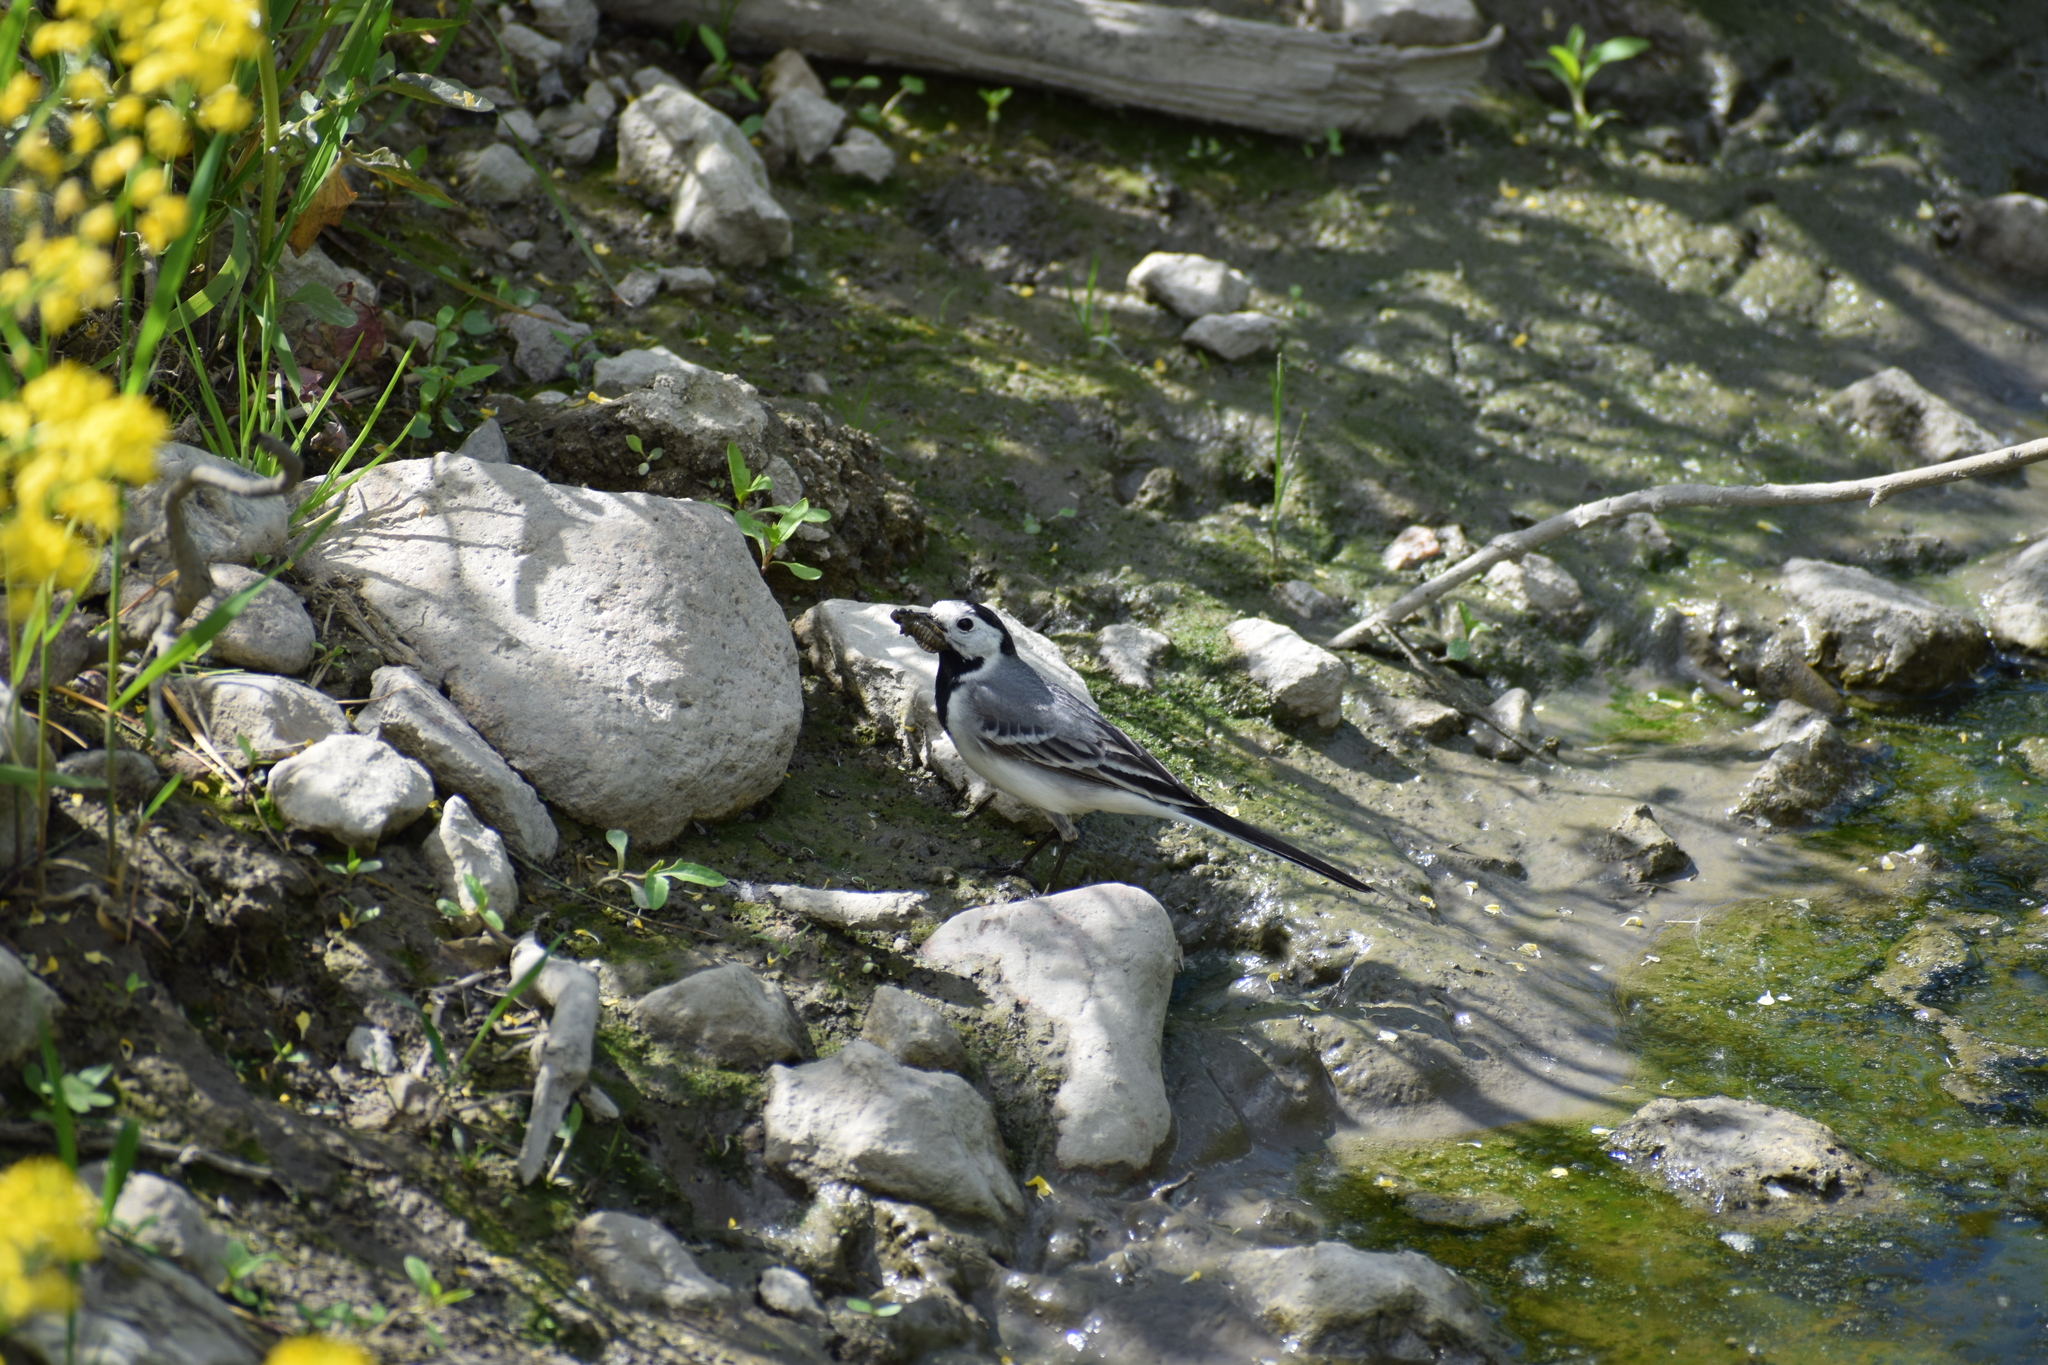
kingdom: Animalia
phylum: Chordata
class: Aves
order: Passeriformes
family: Motacillidae
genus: Motacilla
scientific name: Motacilla alba
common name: White wagtail
